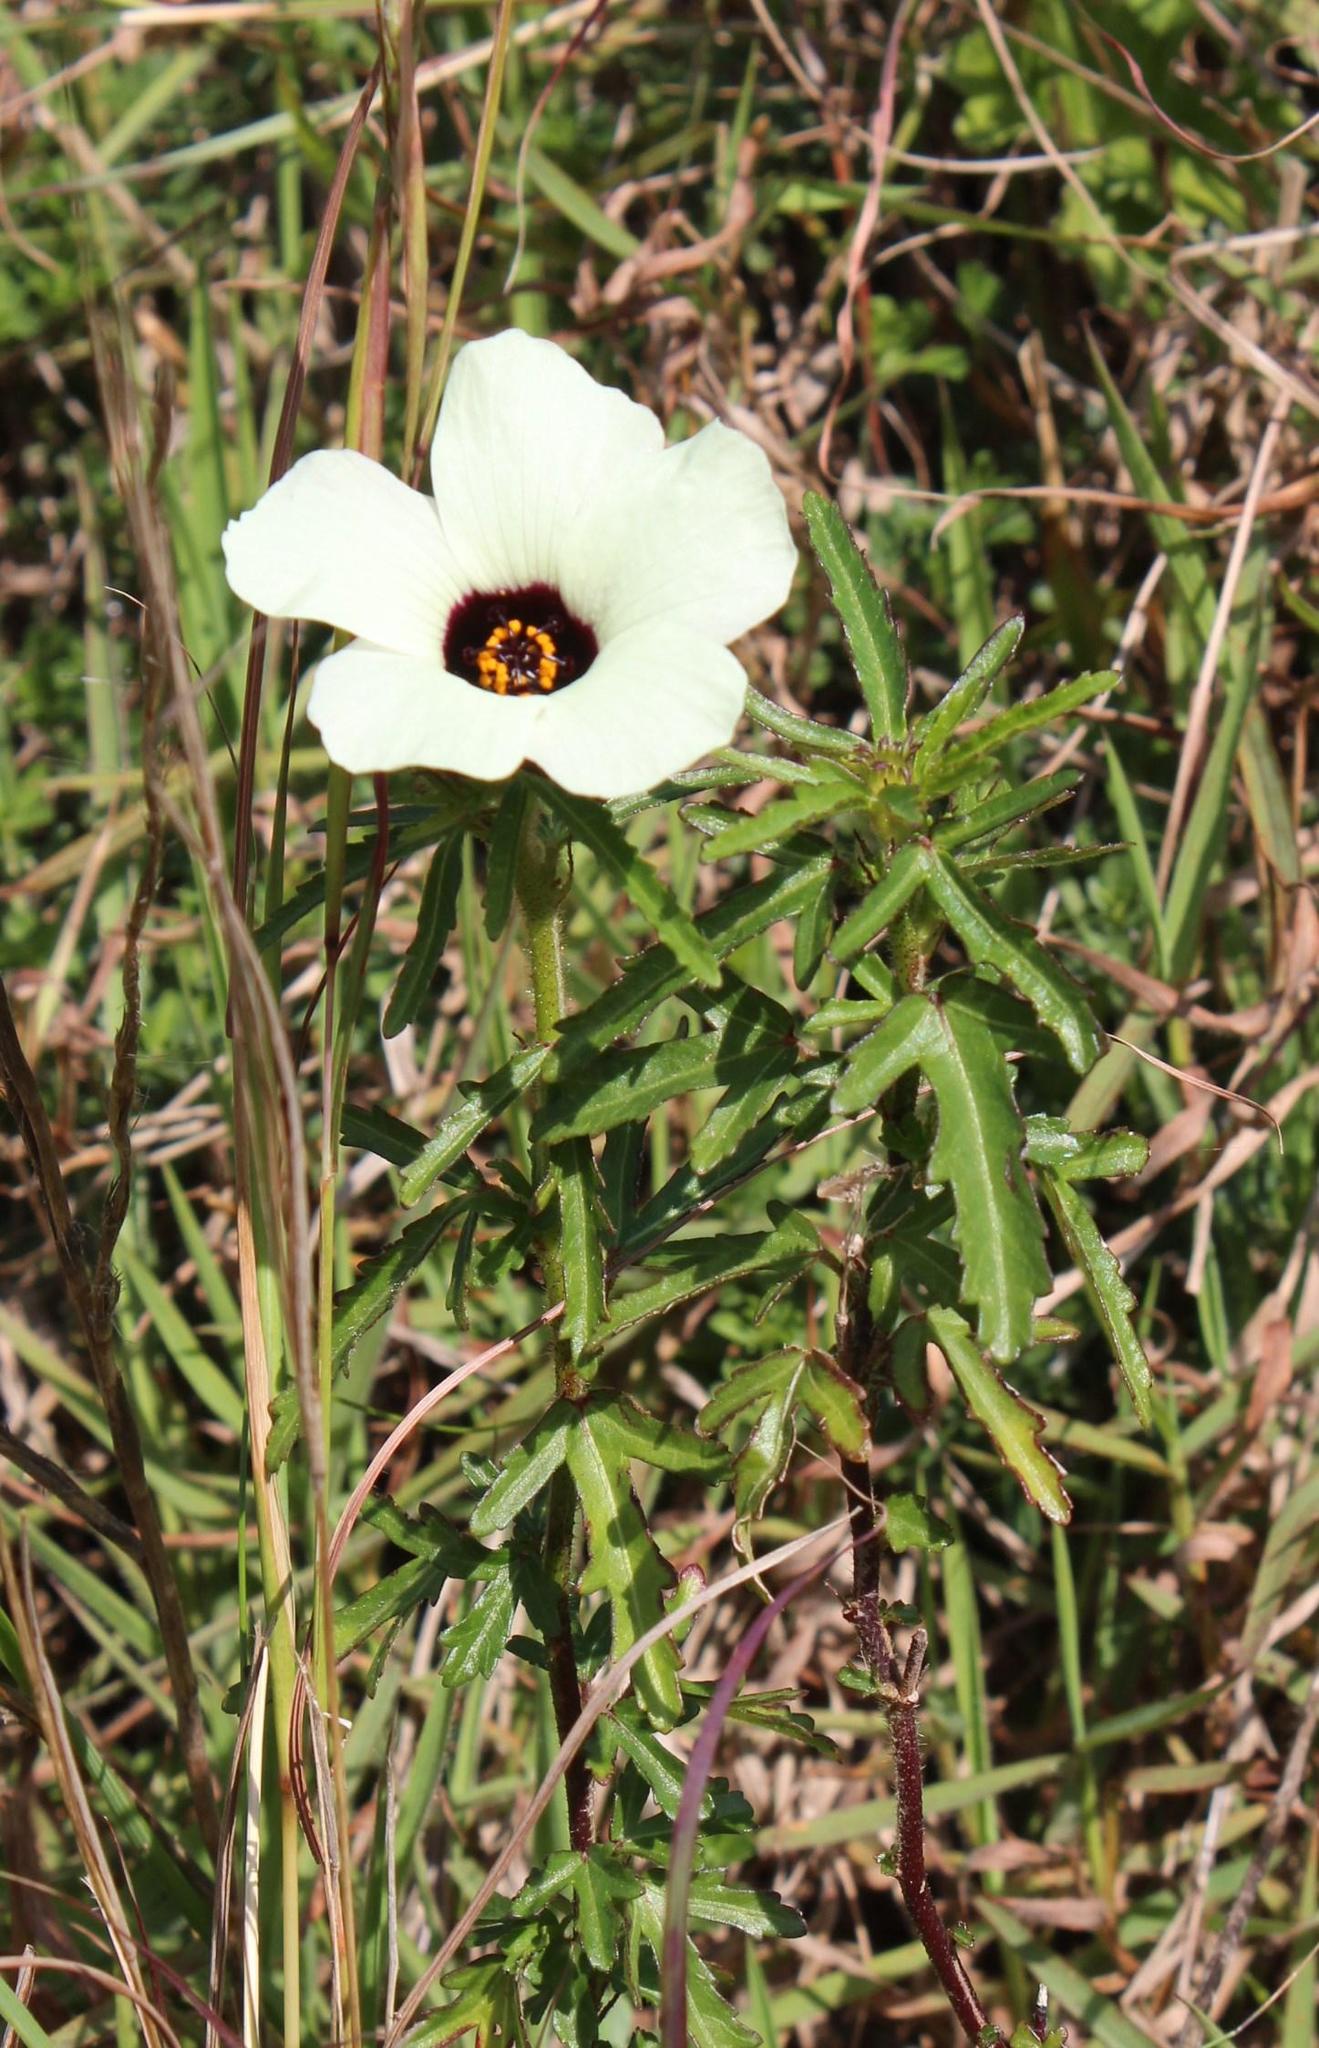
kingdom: Plantae
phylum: Tracheophyta
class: Magnoliopsida
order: Malvales
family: Malvaceae
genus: Hibiscus
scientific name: Hibiscus trionum
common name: Bladder ketmia
